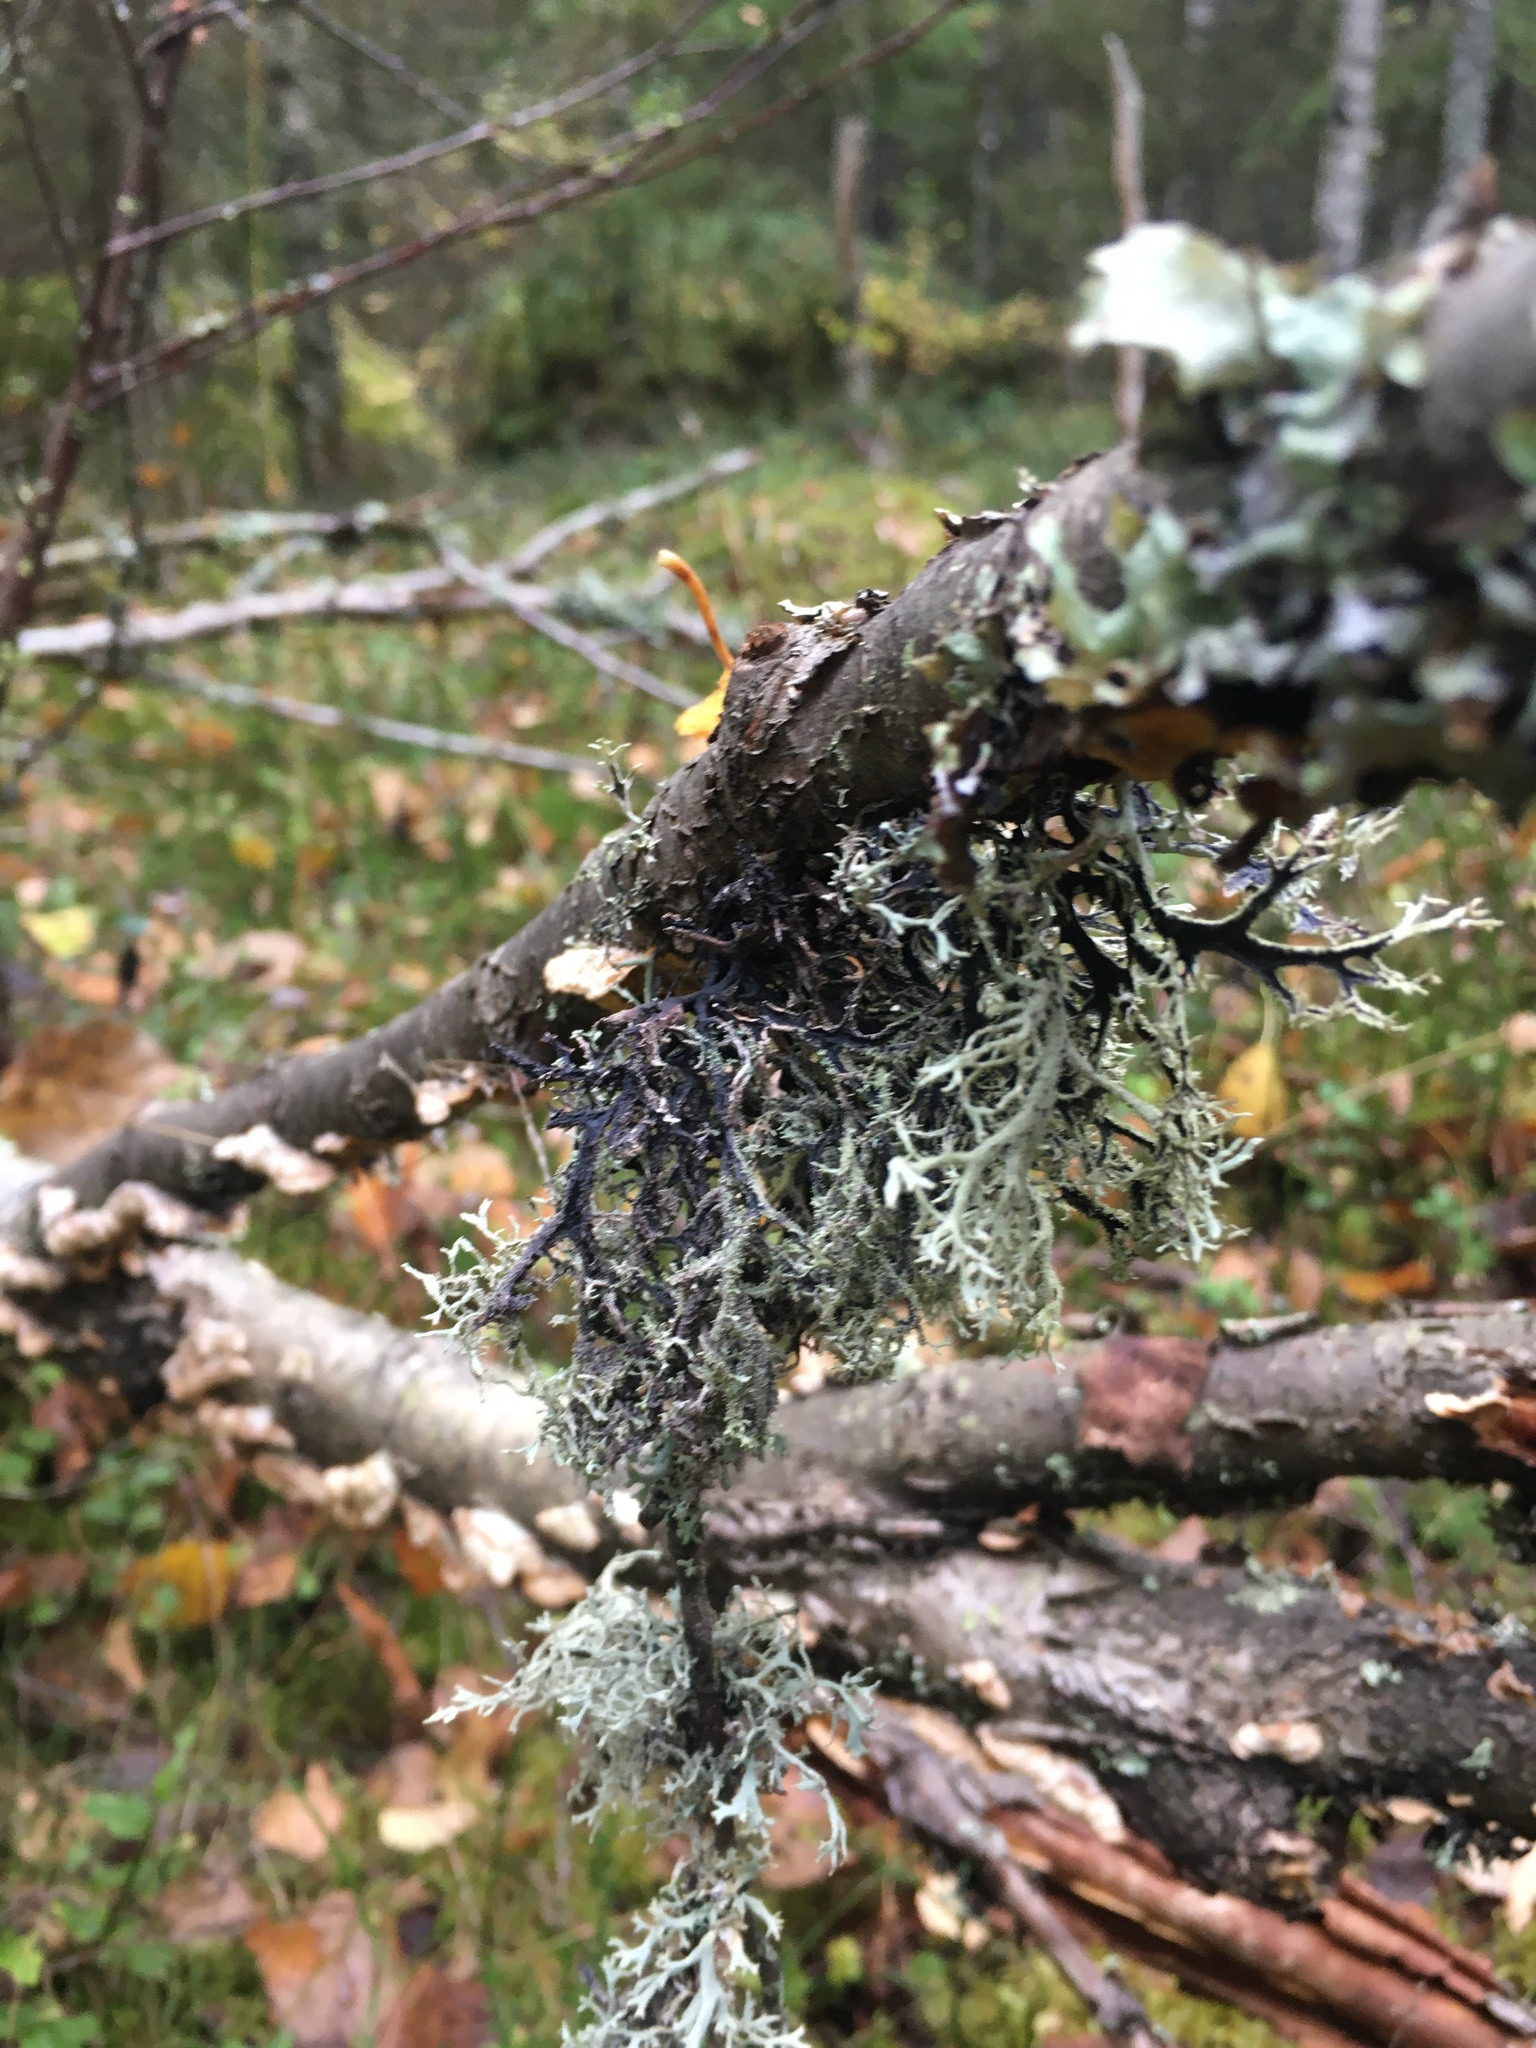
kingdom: Fungi
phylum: Ascomycota
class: Lecanoromycetes
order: Lecanorales
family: Parmeliaceae
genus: Pseudevernia
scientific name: Pseudevernia furfuracea
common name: Tree moss
